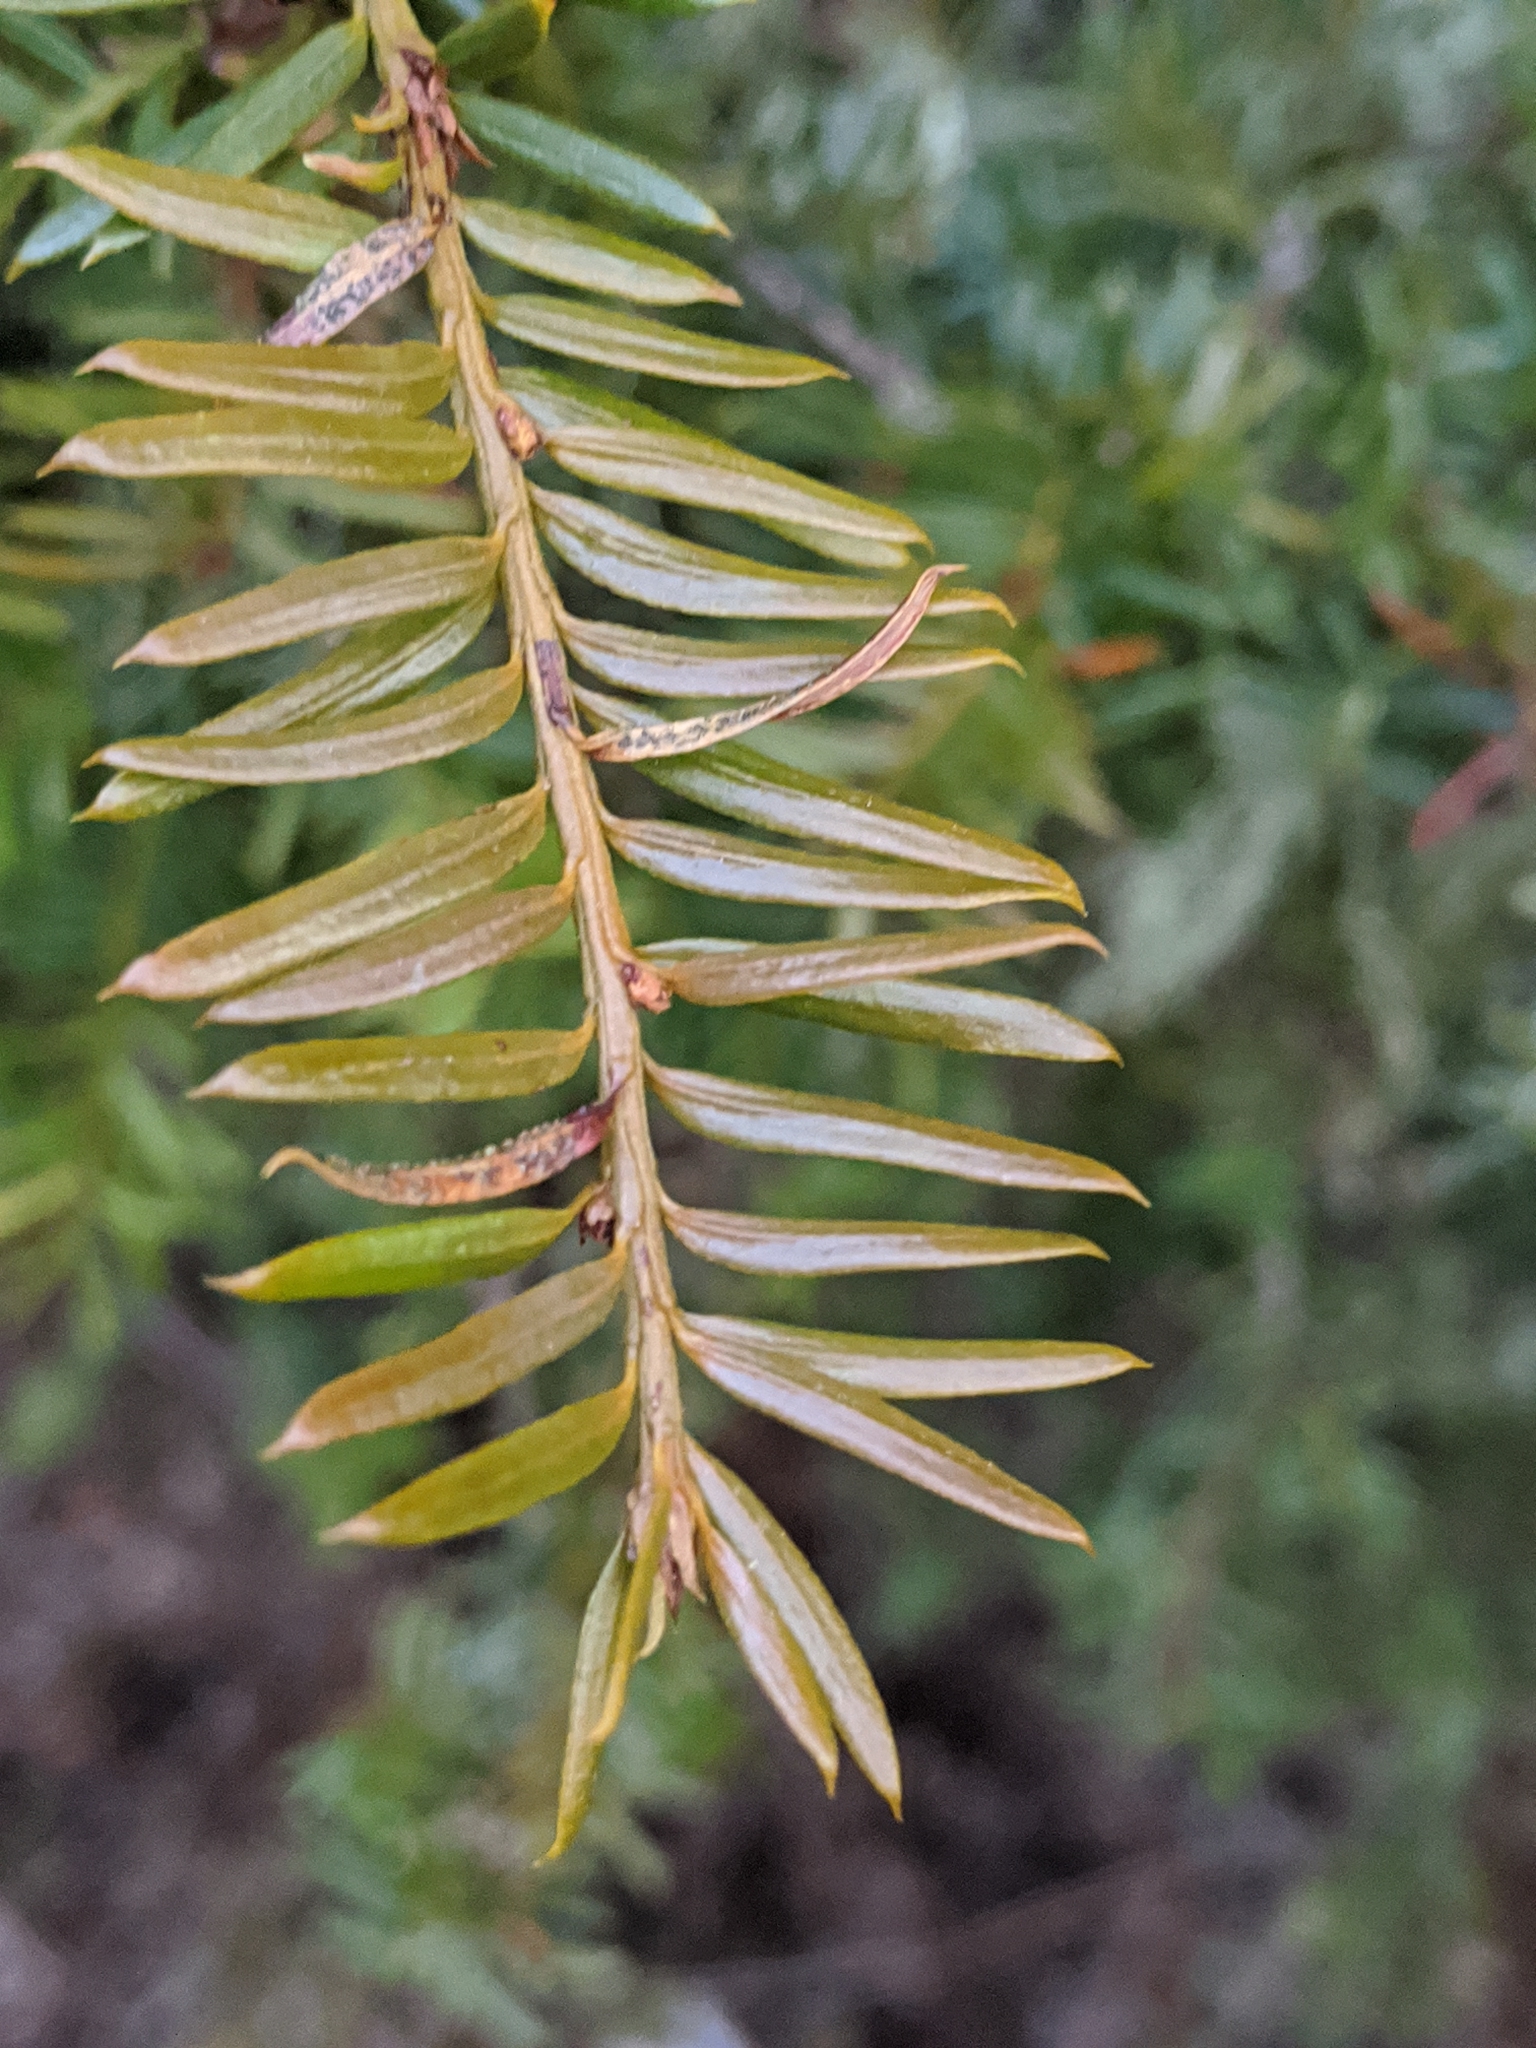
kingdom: Plantae
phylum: Tracheophyta
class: Pinopsida
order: Pinales
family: Taxaceae
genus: Taxus
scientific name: Taxus brevifolia
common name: Pacific yew
